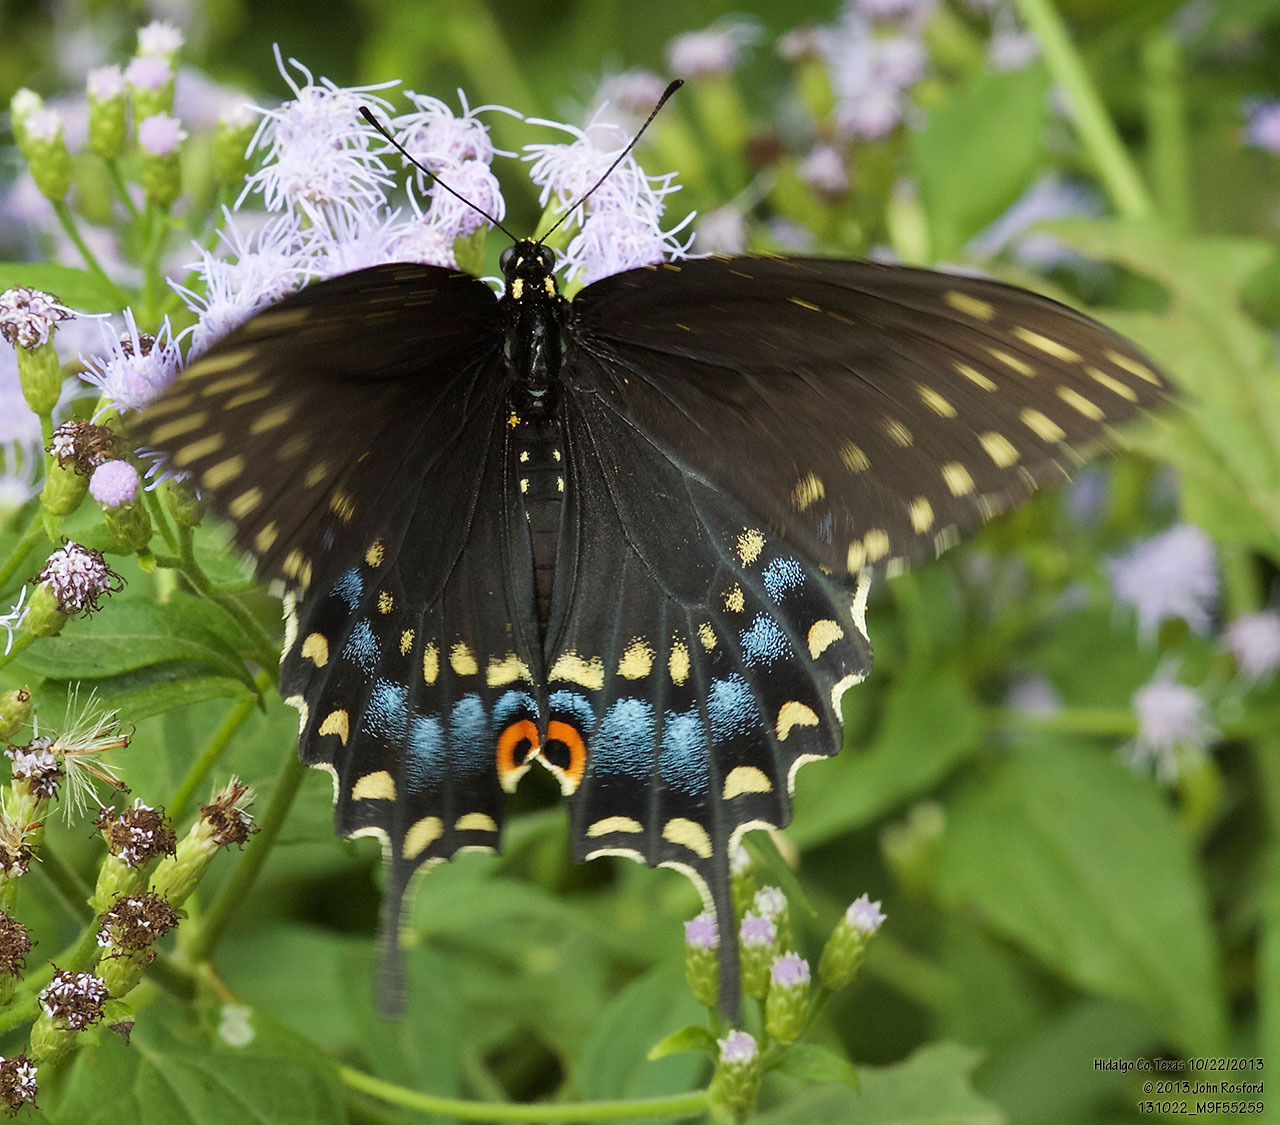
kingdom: Animalia
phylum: Arthropoda
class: Insecta
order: Lepidoptera
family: Papilionidae
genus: Papilio
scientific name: Papilio polyxenes
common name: Black swallowtail
